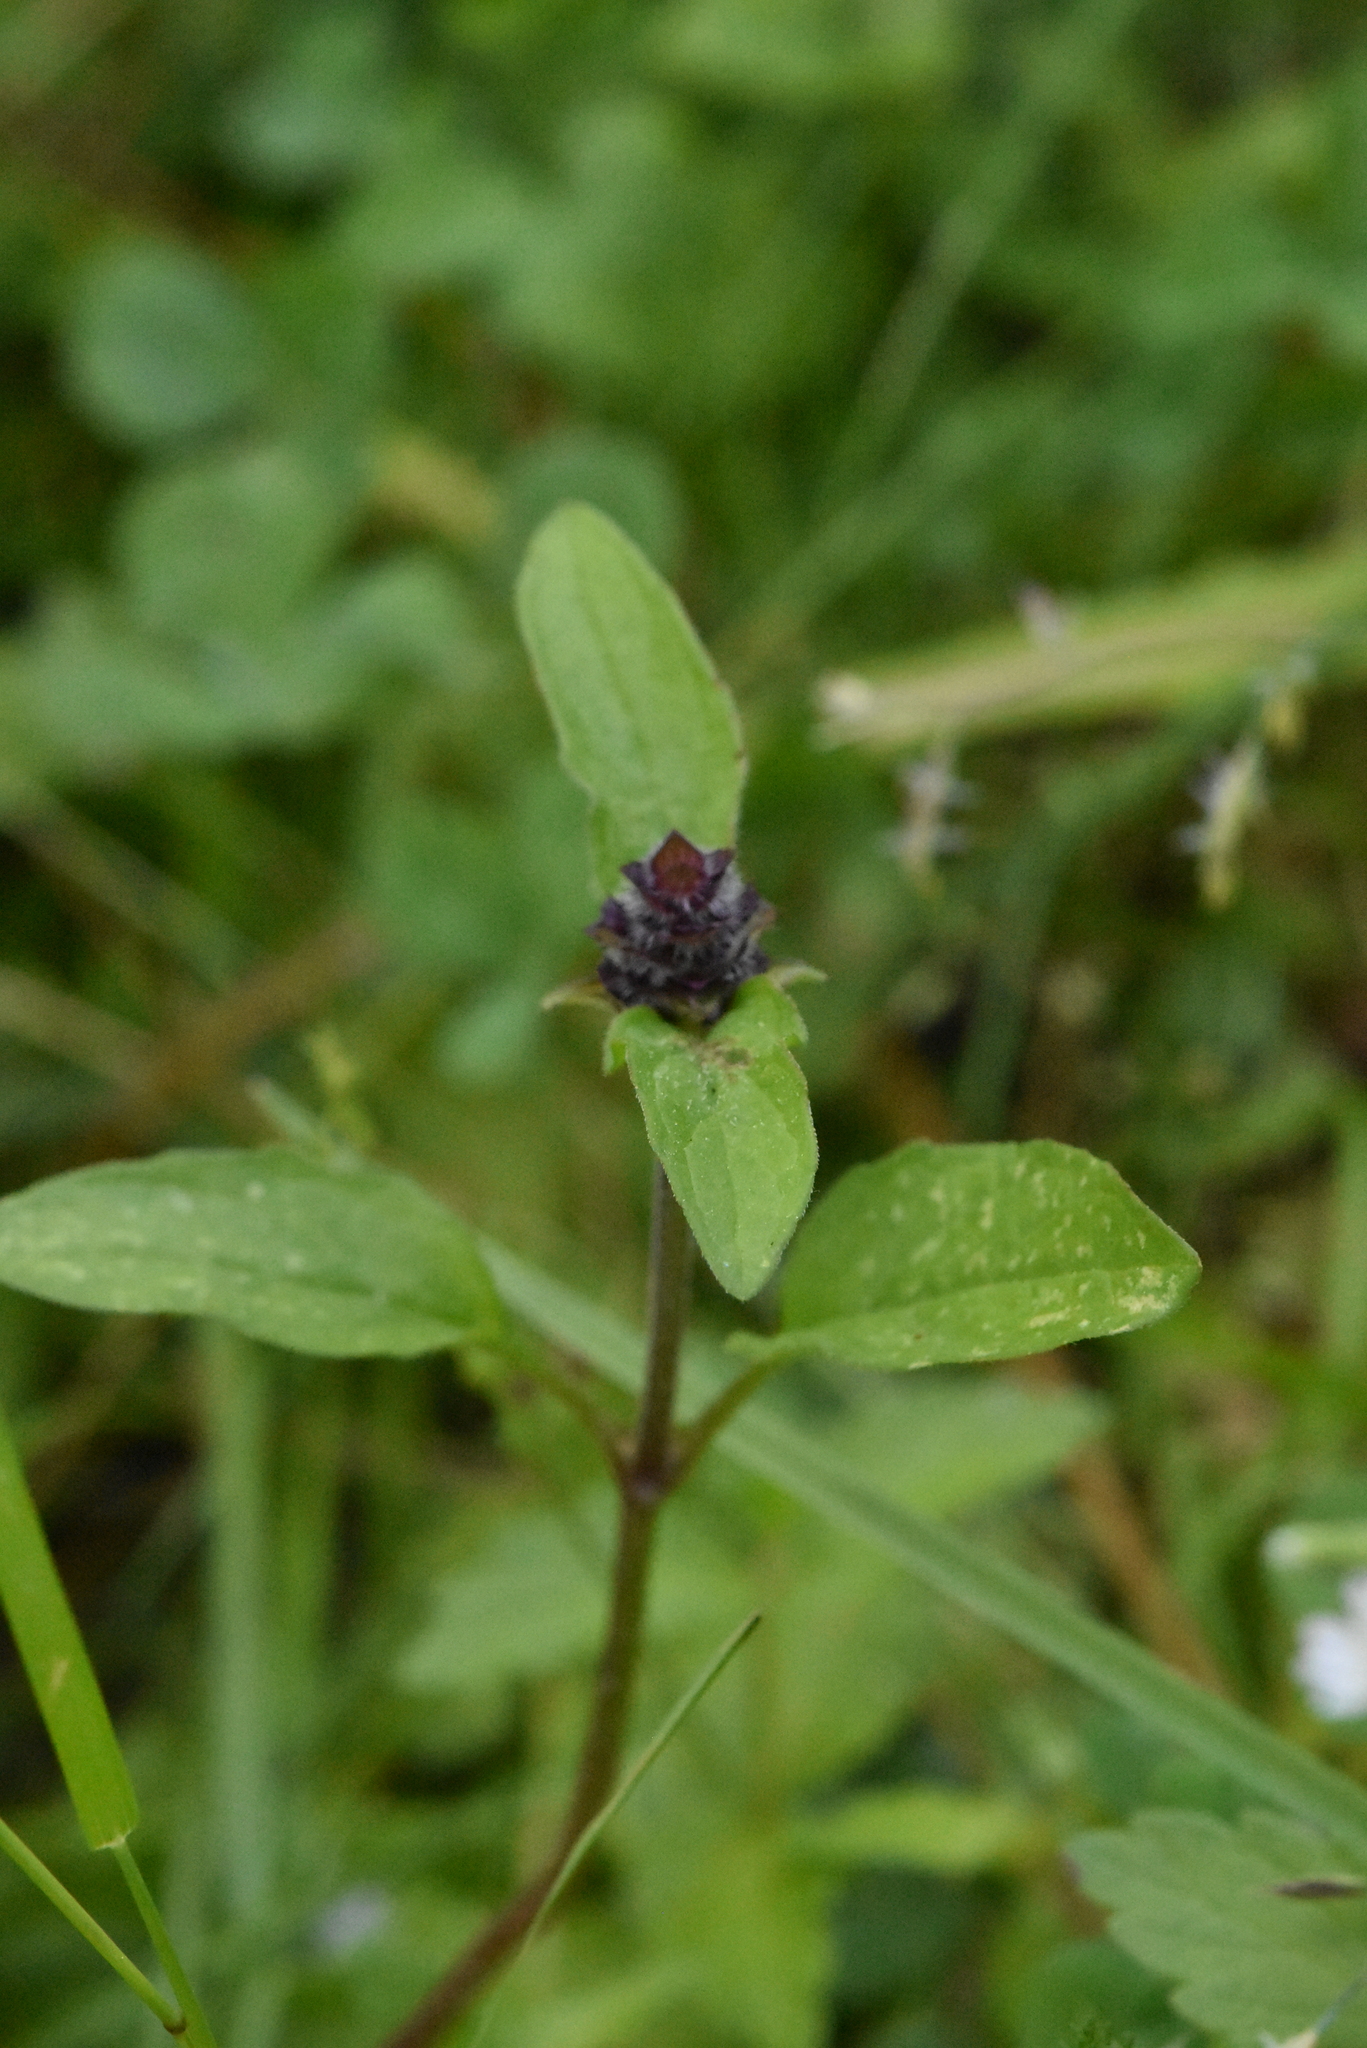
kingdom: Plantae
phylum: Tracheophyta
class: Magnoliopsida
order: Lamiales
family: Lamiaceae
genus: Prunella
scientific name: Prunella vulgaris
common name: Heal-all
